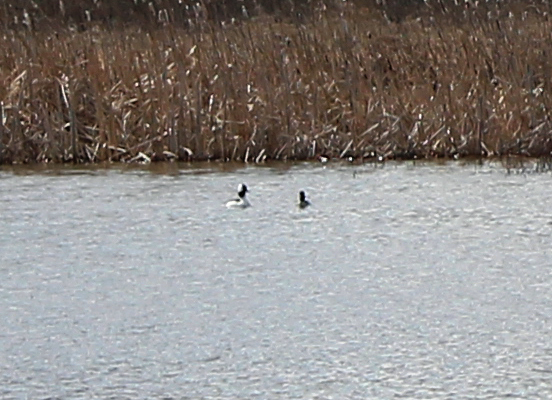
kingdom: Animalia
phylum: Chordata
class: Aves
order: Anseriformes
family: Anatidae
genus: Bucephala
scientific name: Bucephala albeola
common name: Bufflehead
